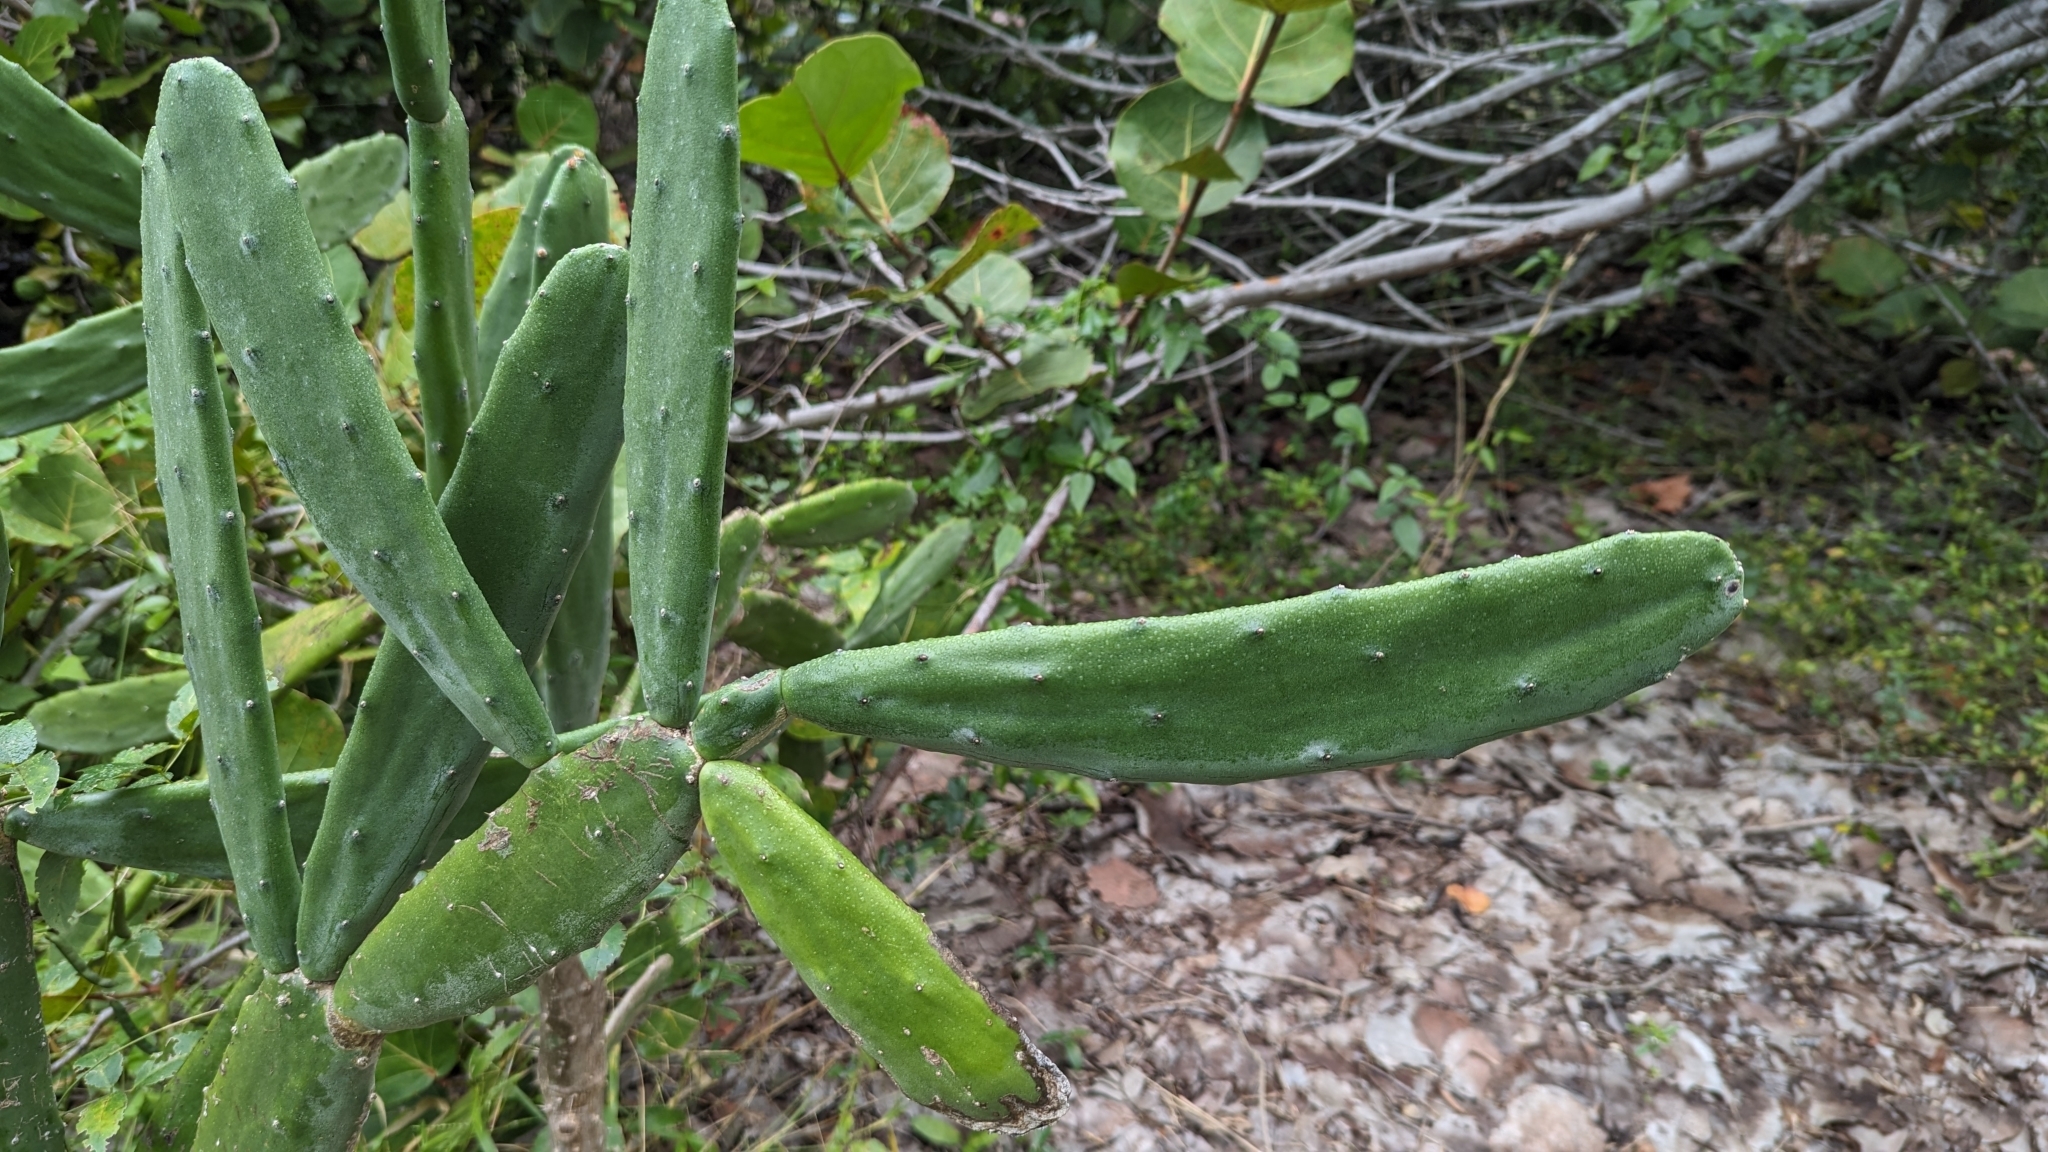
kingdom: Plantae
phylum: Tracheophyta
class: Magnoliopsida
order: Caryophyllales
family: Cactaceae
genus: Opuntia
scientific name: Opuntia cochenillifera
